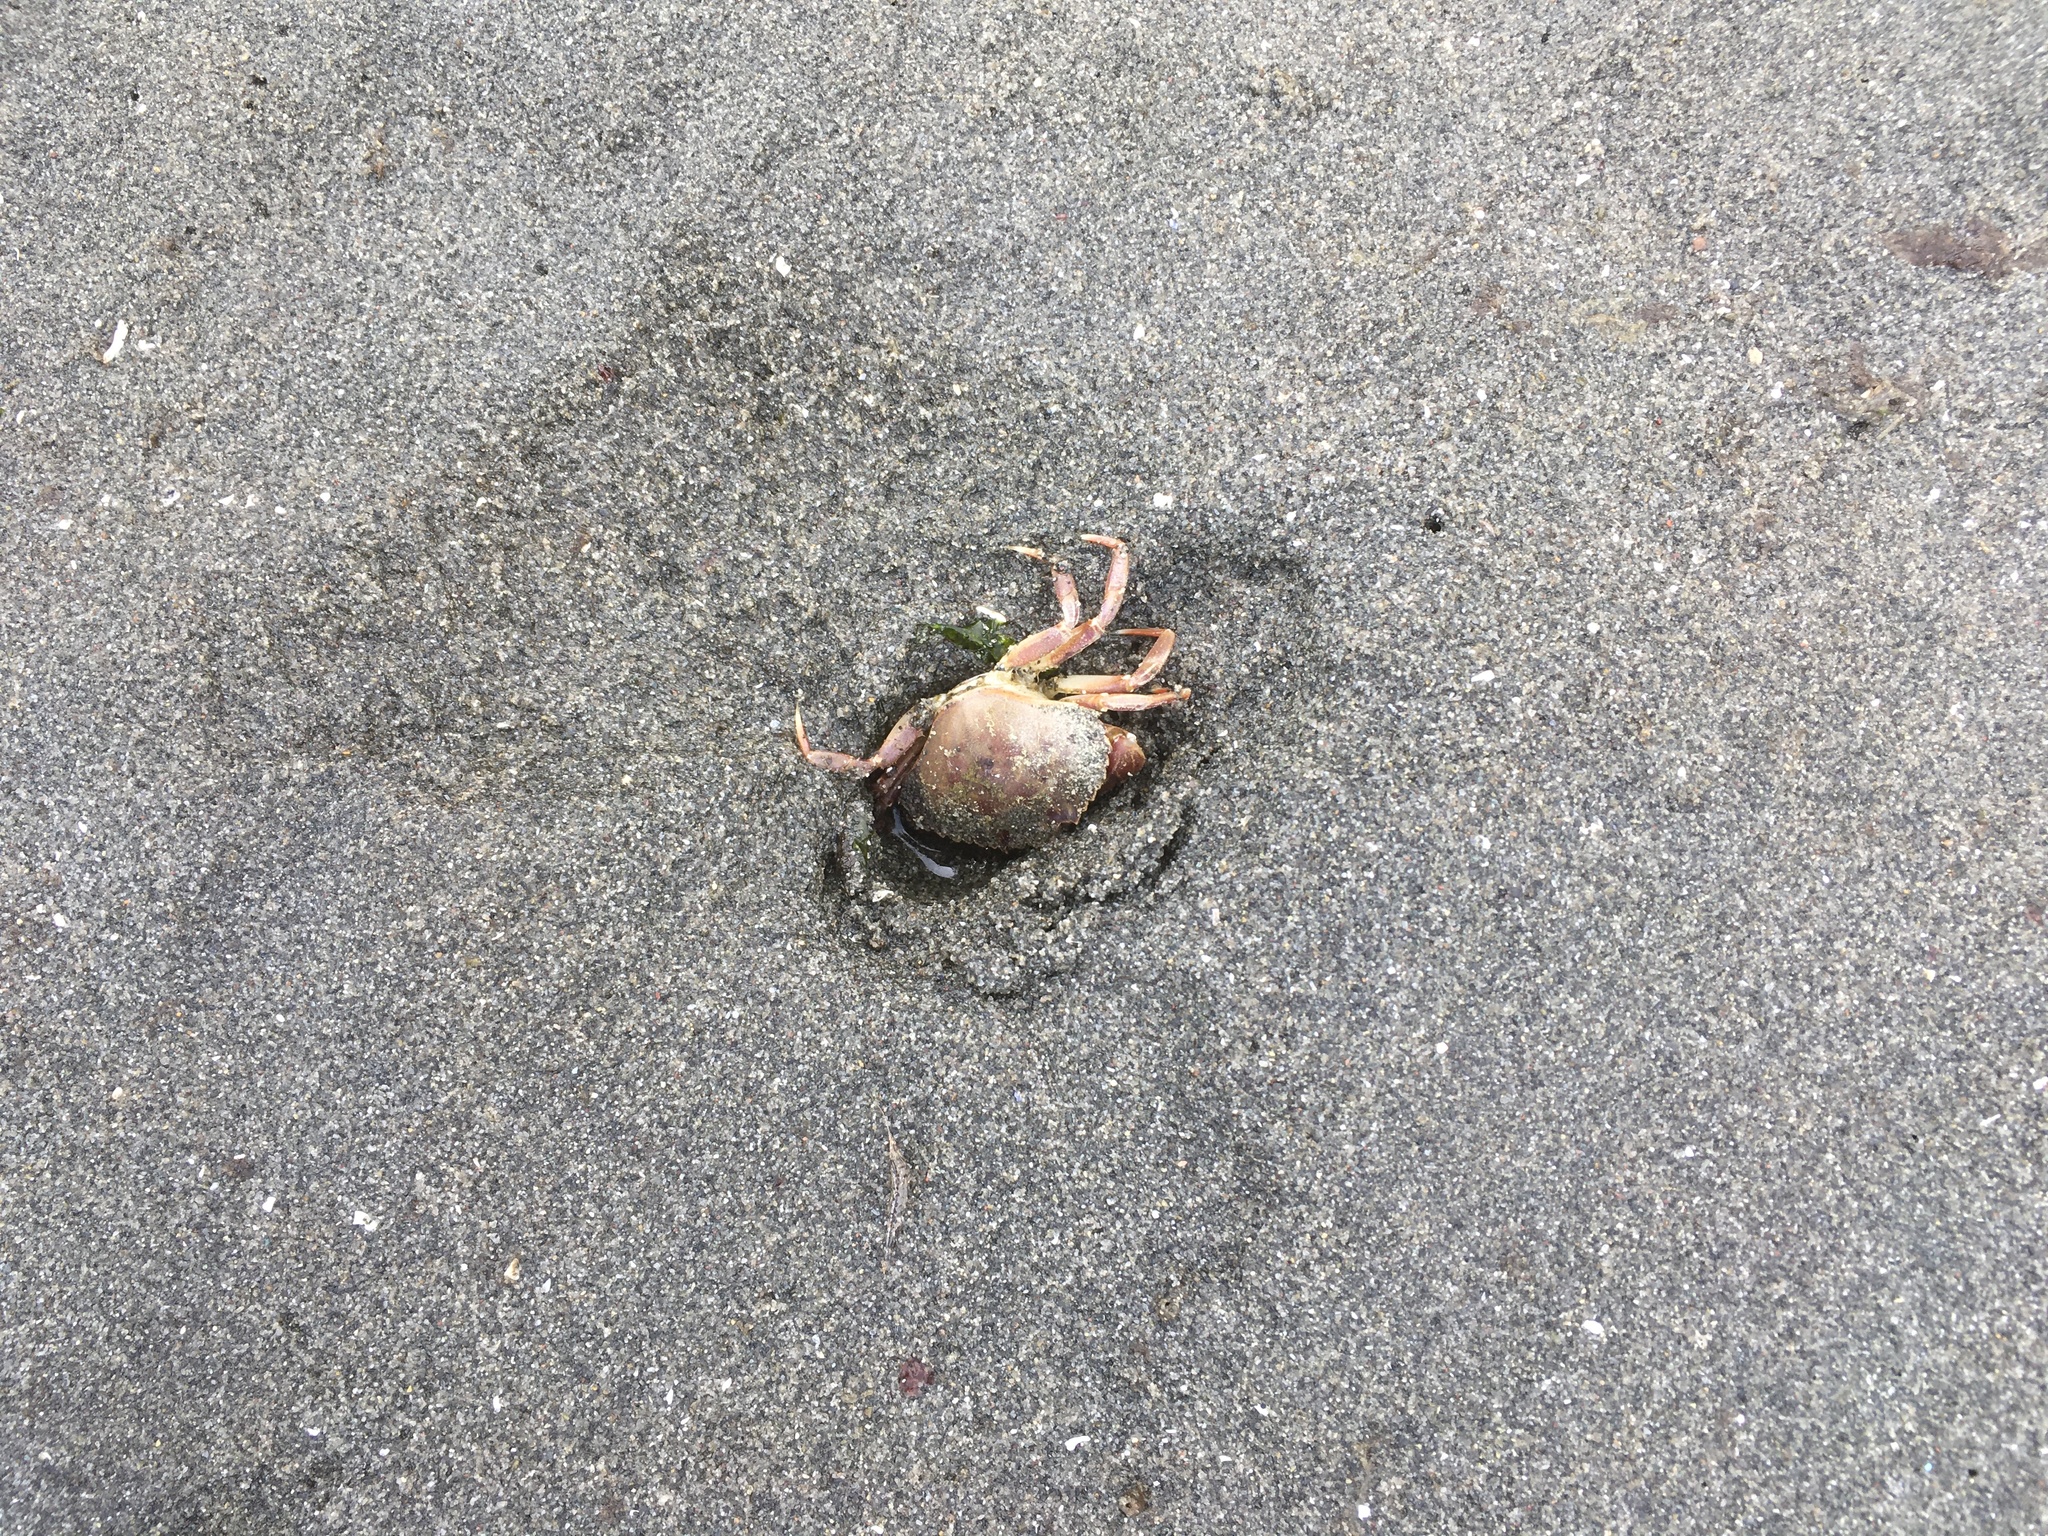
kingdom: Animalia
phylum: Arthropoda
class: Malacostraca
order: Decapoda
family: Cancridae
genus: Metacarcinus
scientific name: Metacarcinus gracilis
